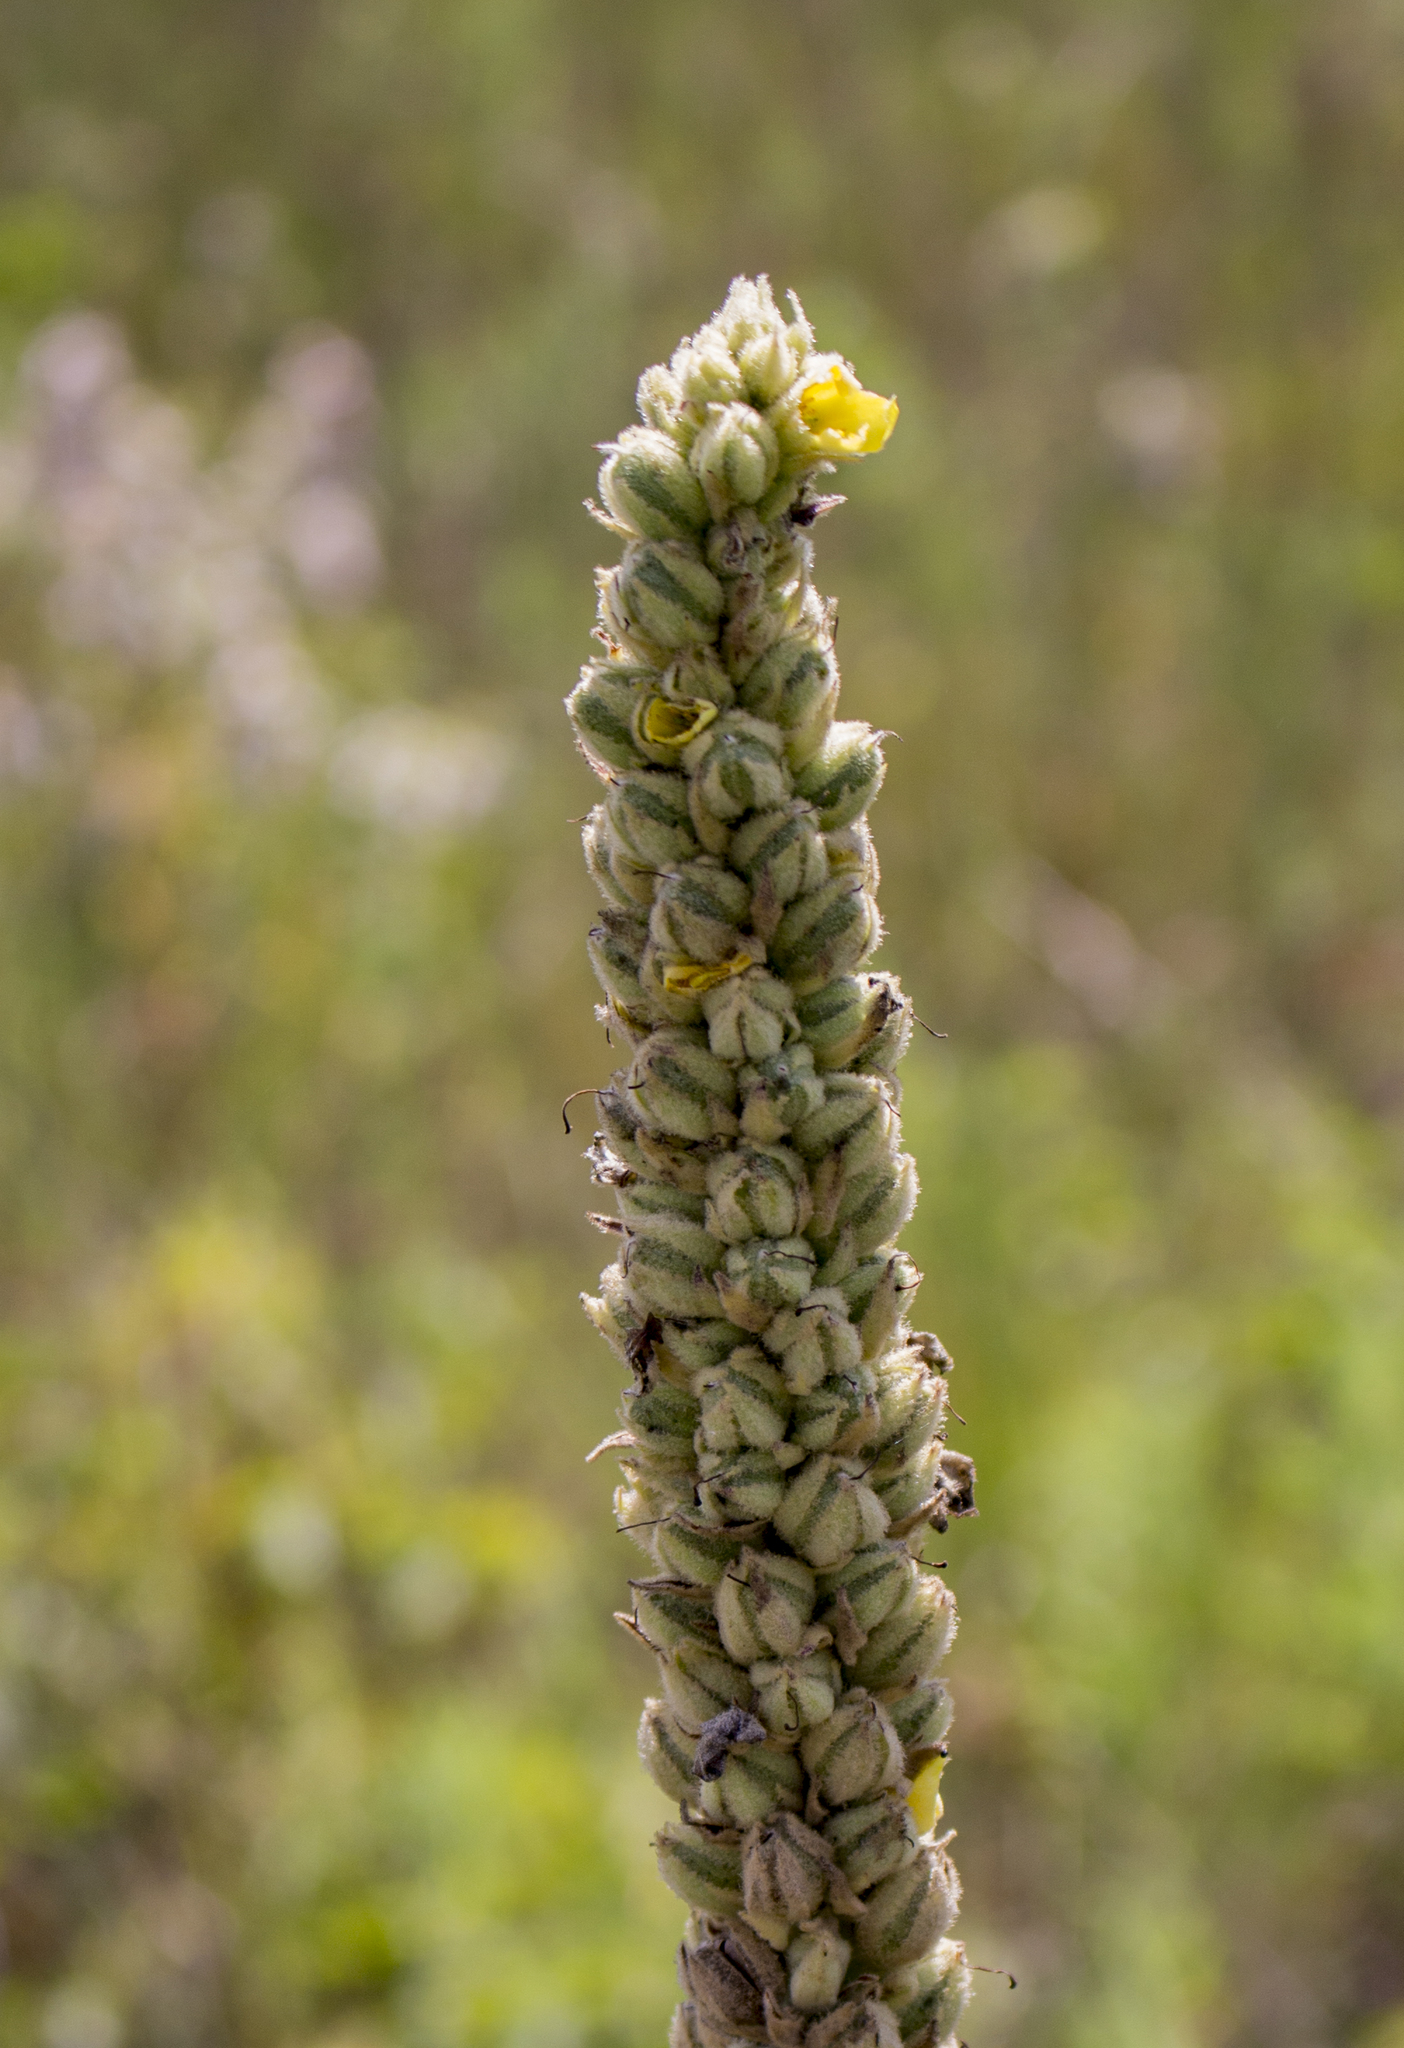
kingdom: Plantae
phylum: Tracheophyta
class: Magnoliopsida
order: Lamiales
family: Scrophulariaceae
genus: Verbascum
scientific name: Verbascum thapsus
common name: Common mullein
